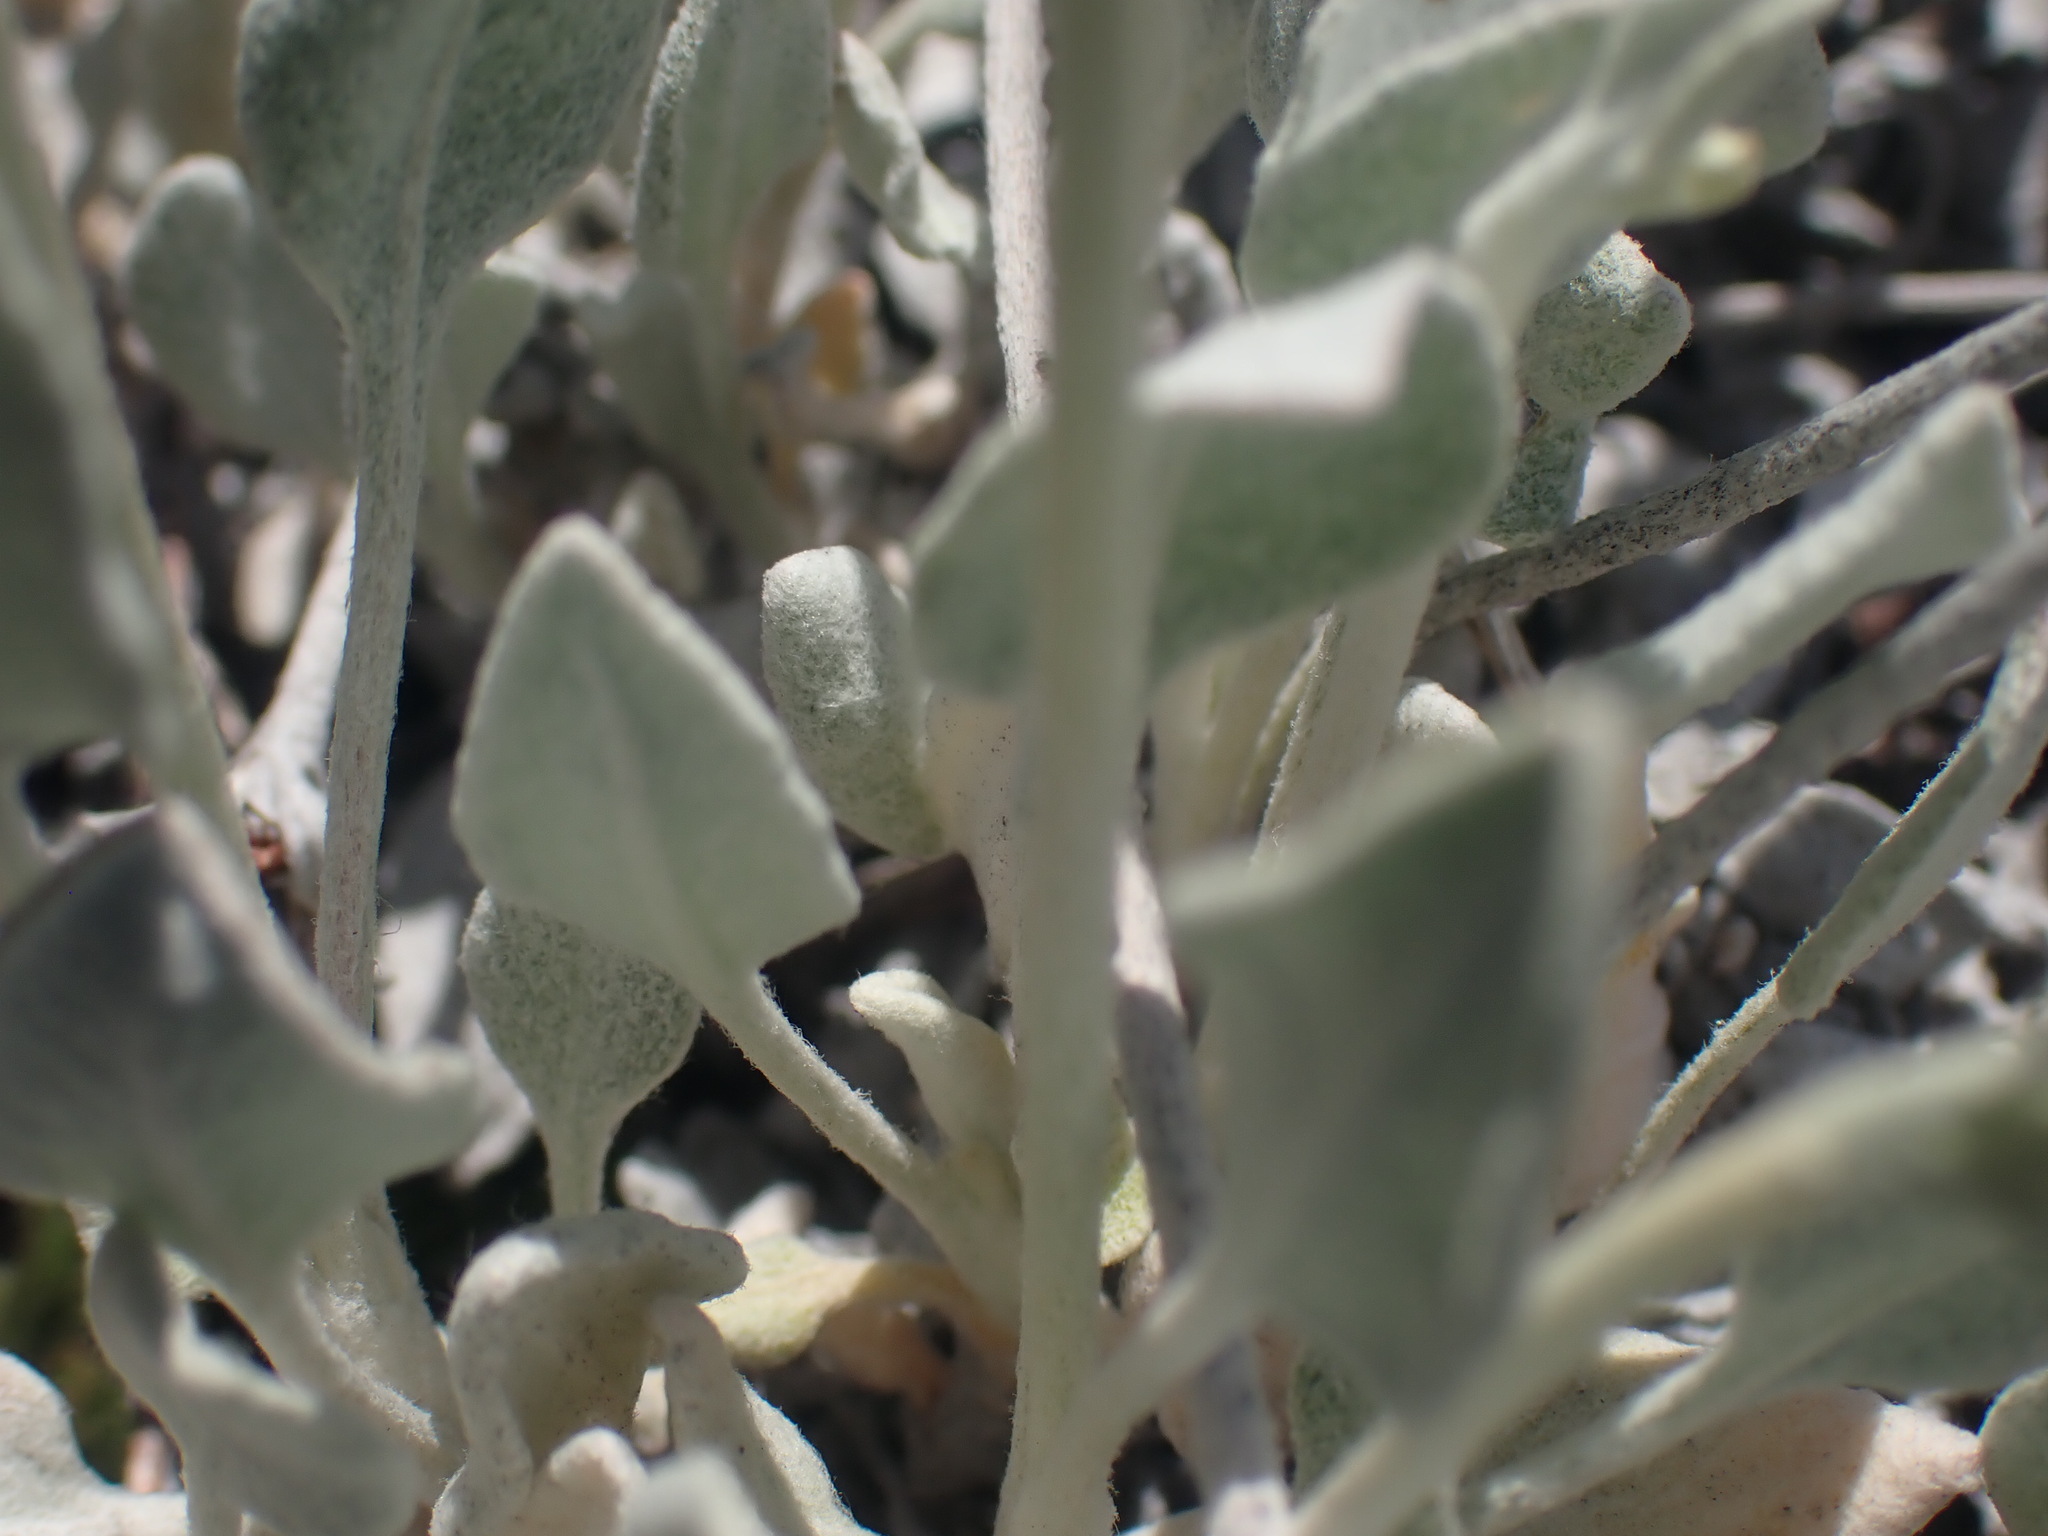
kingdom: Plantae
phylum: Tracheophyta
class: Magnoliopsida
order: Caryophyllales
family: Polygonaceae
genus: Eriogonum
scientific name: Eriogonum niveum
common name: Snow wild buckwheat
